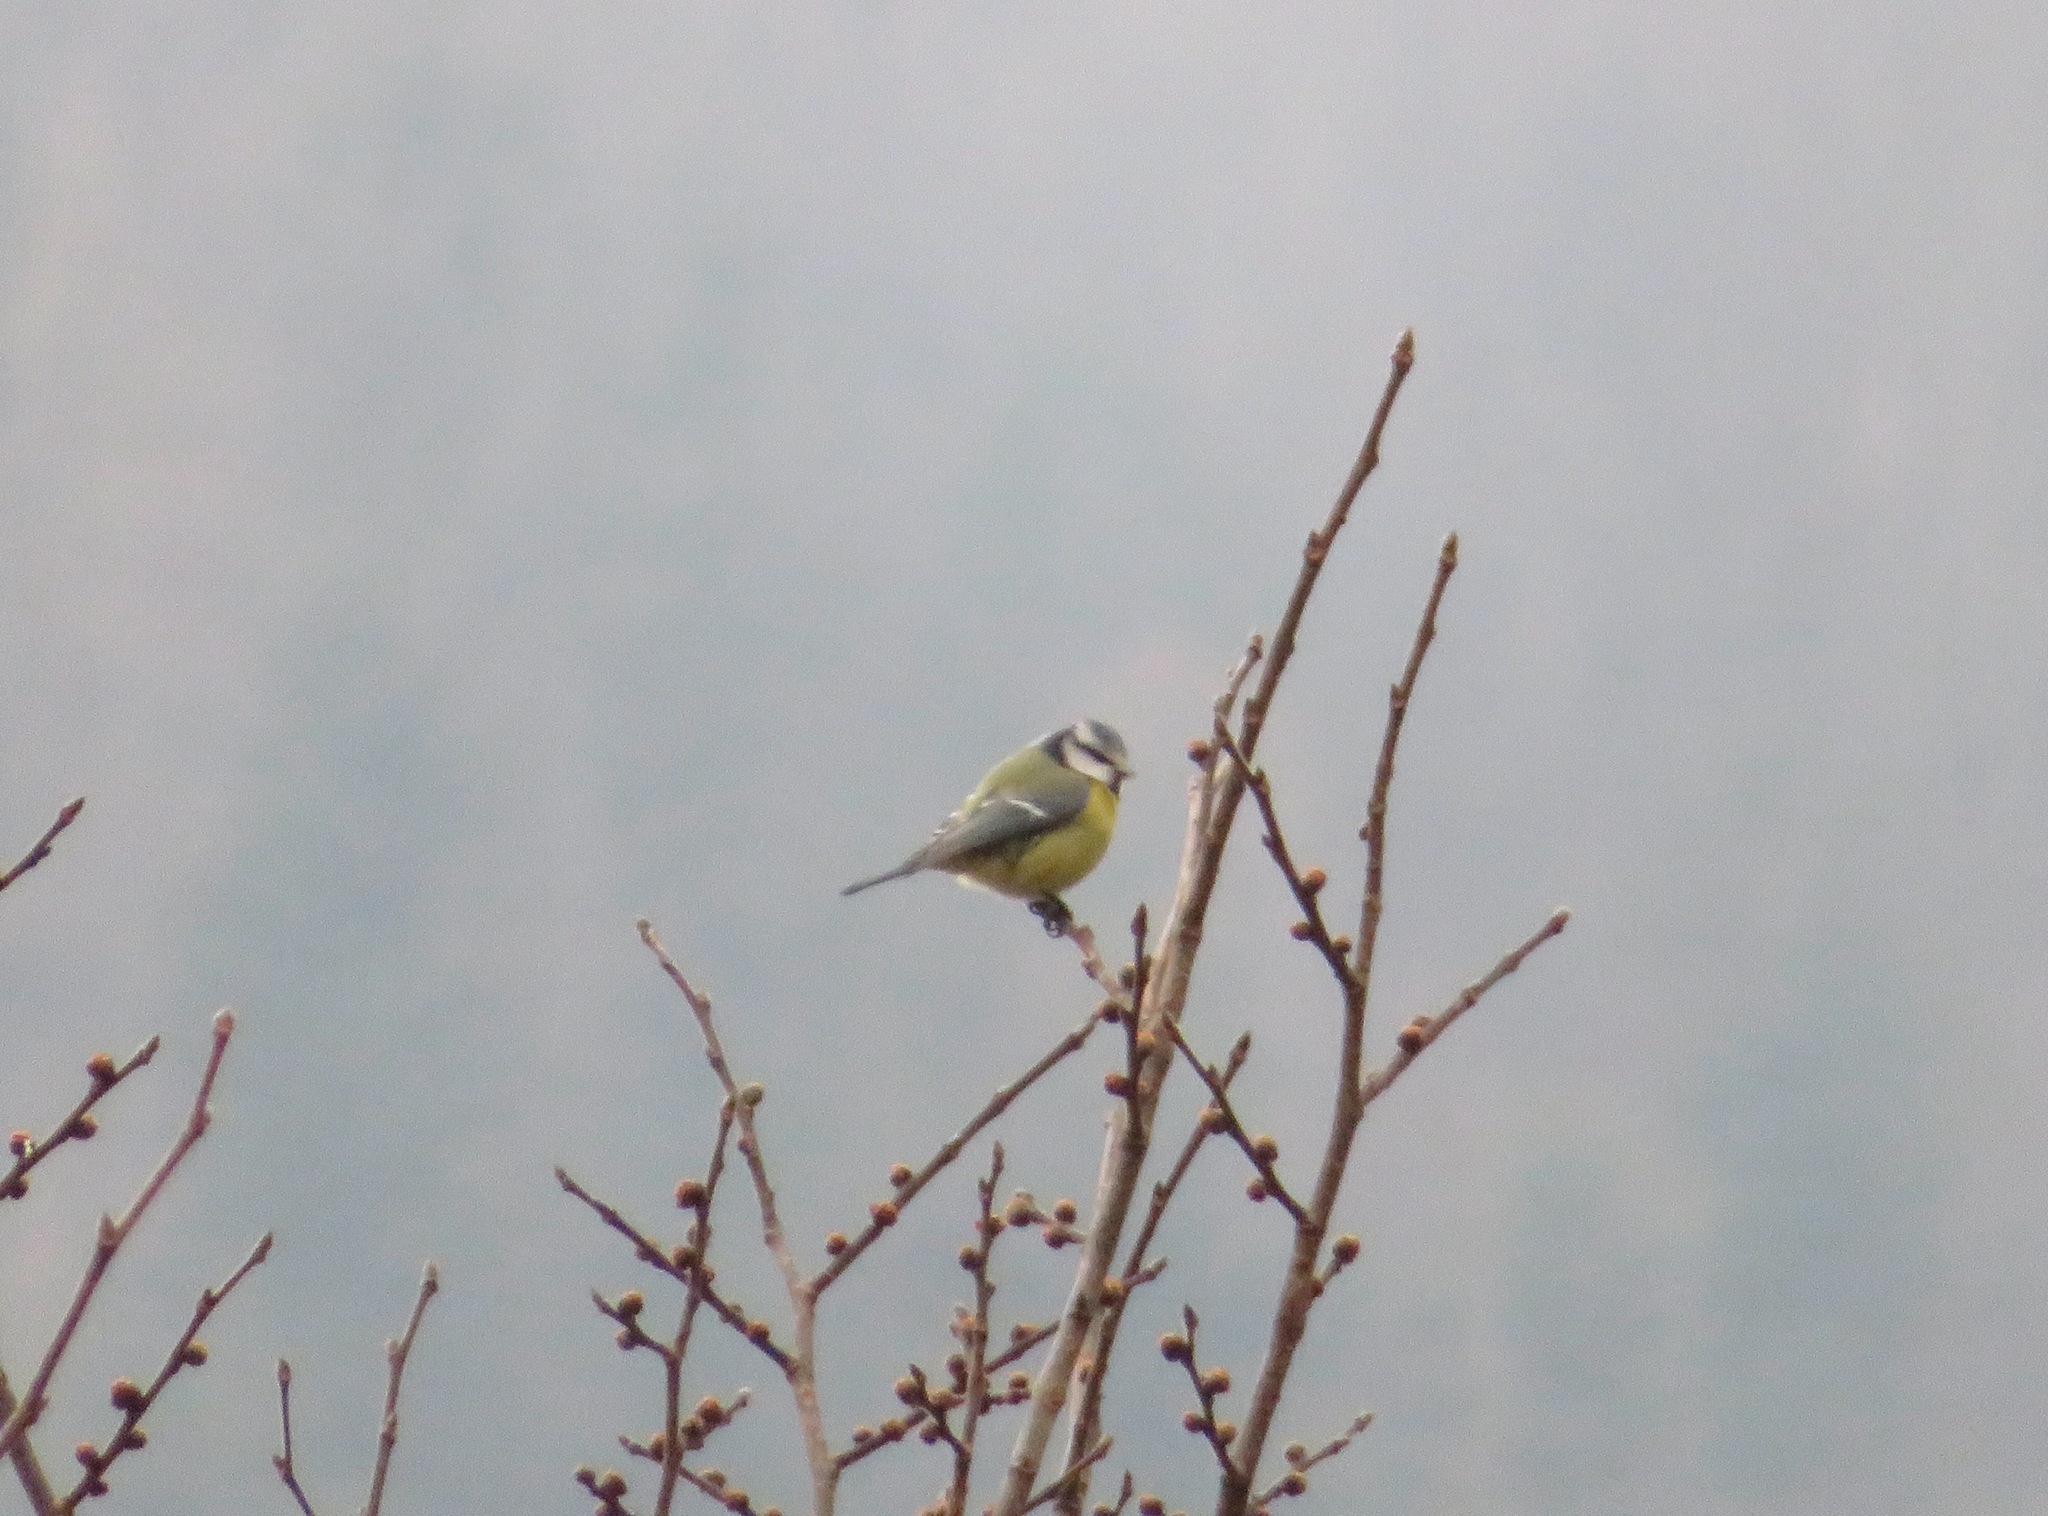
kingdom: Animalia
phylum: Chordata
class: Aves
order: Passeriformes
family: Paridae
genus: Cyanistes
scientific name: Cyanistes caeruleus
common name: Eurasian blue tit
